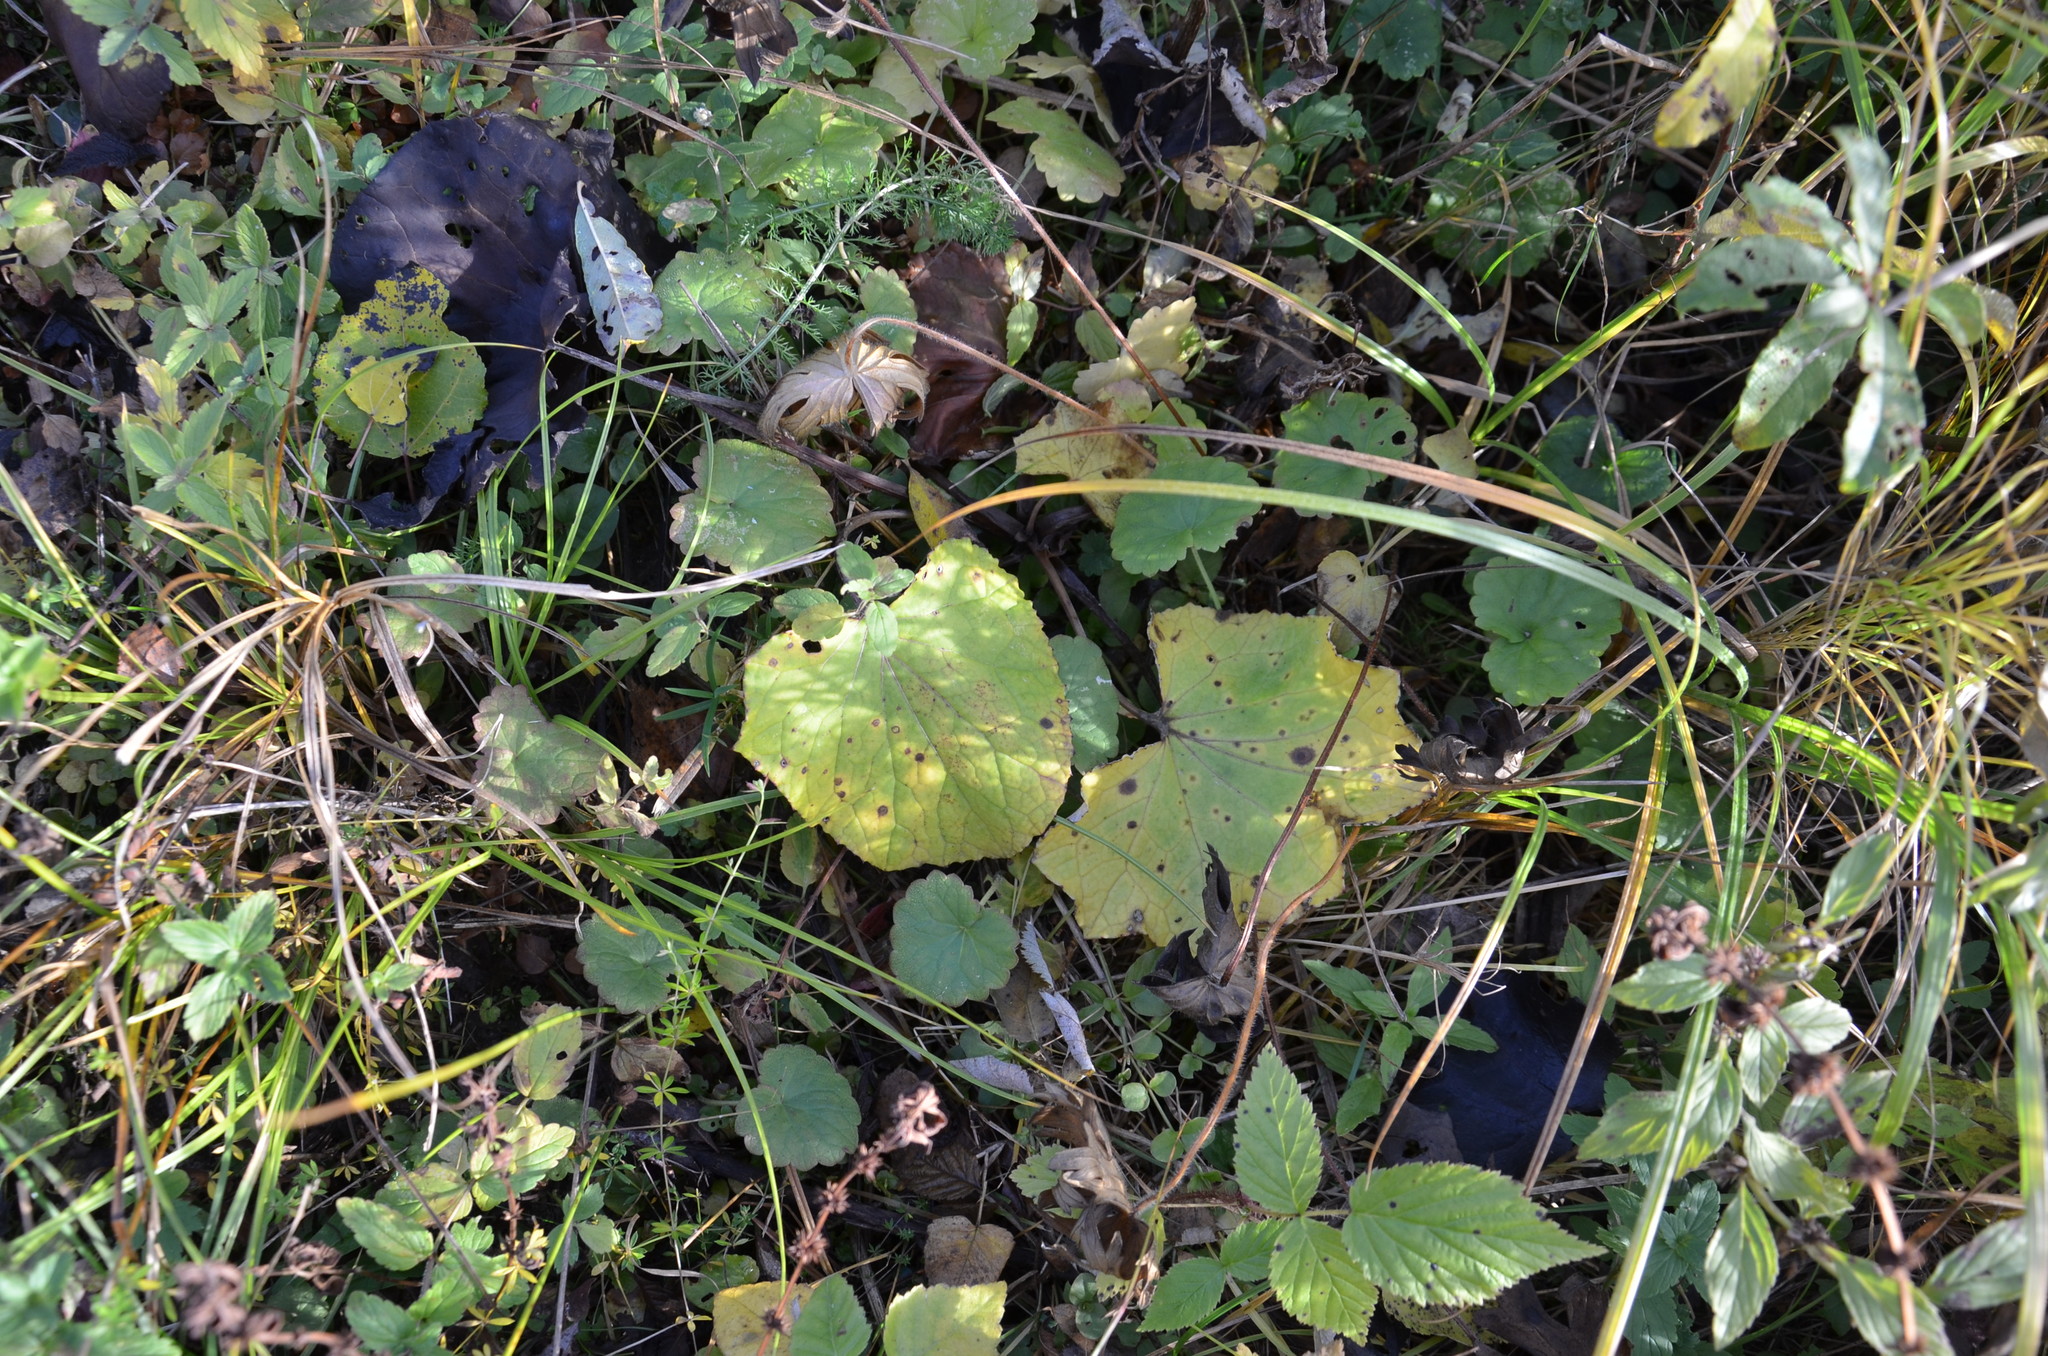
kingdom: Plantae
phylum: Tracheophyta
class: Magnoliopsida
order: Asterales
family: Asteraceae
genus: Tussilago
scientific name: Tussilago farfara
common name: Coltsfoot
